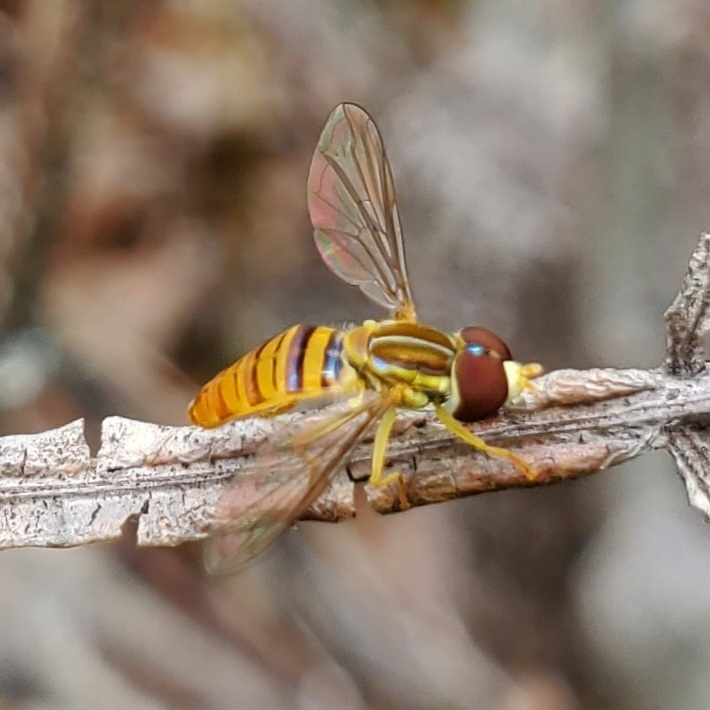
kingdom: Animalia
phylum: Arthropoda
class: Insecta
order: Diptera
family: Syrphidae
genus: Toxomerus
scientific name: Toxomerus politus
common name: Maize calligrapher
